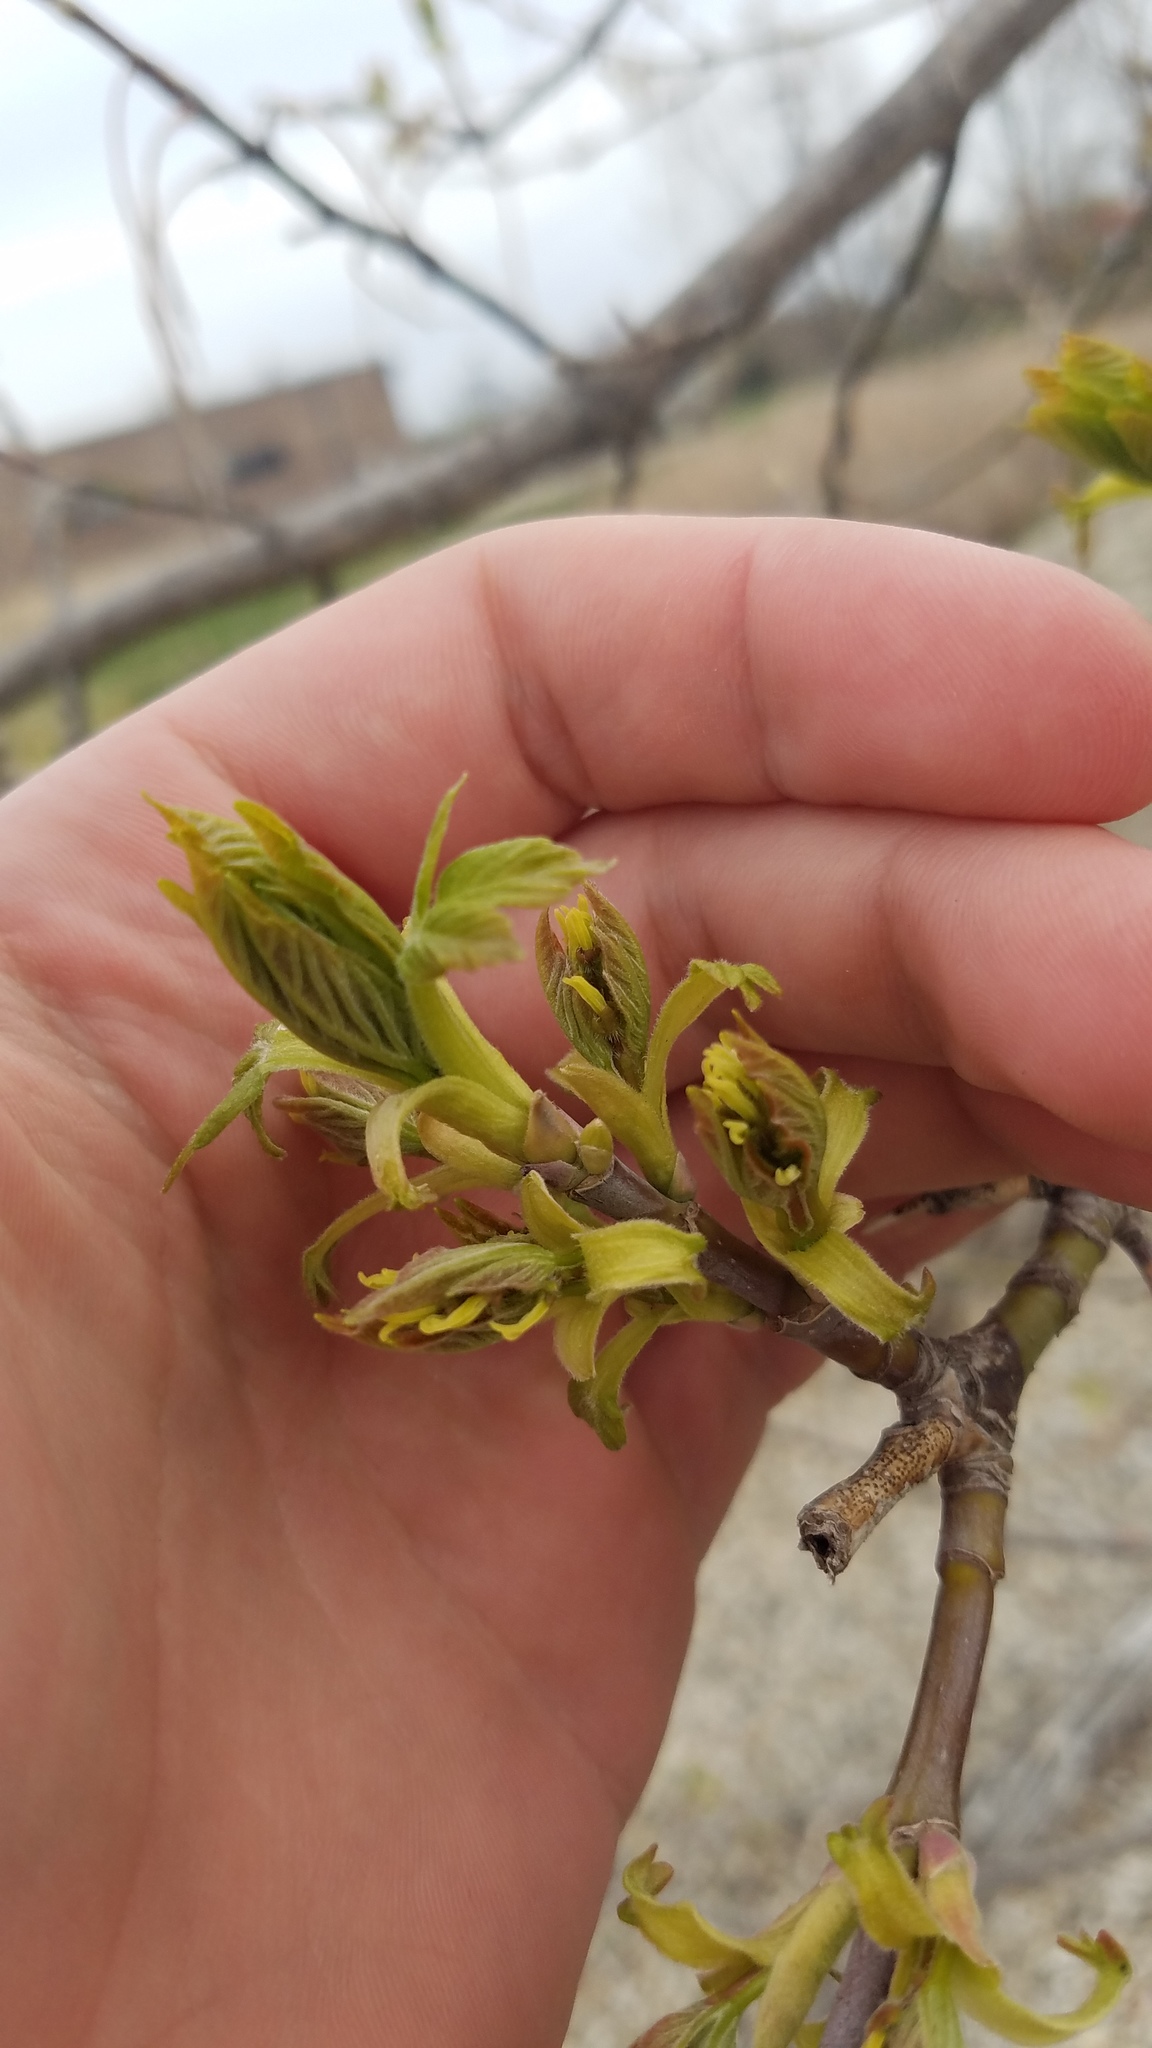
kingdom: Plantae
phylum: Tracheophyta
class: Magnoliopsida
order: Sapindales
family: Sapindaceae
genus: Acer
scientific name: Acer negundo
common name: Ashleaf maple
